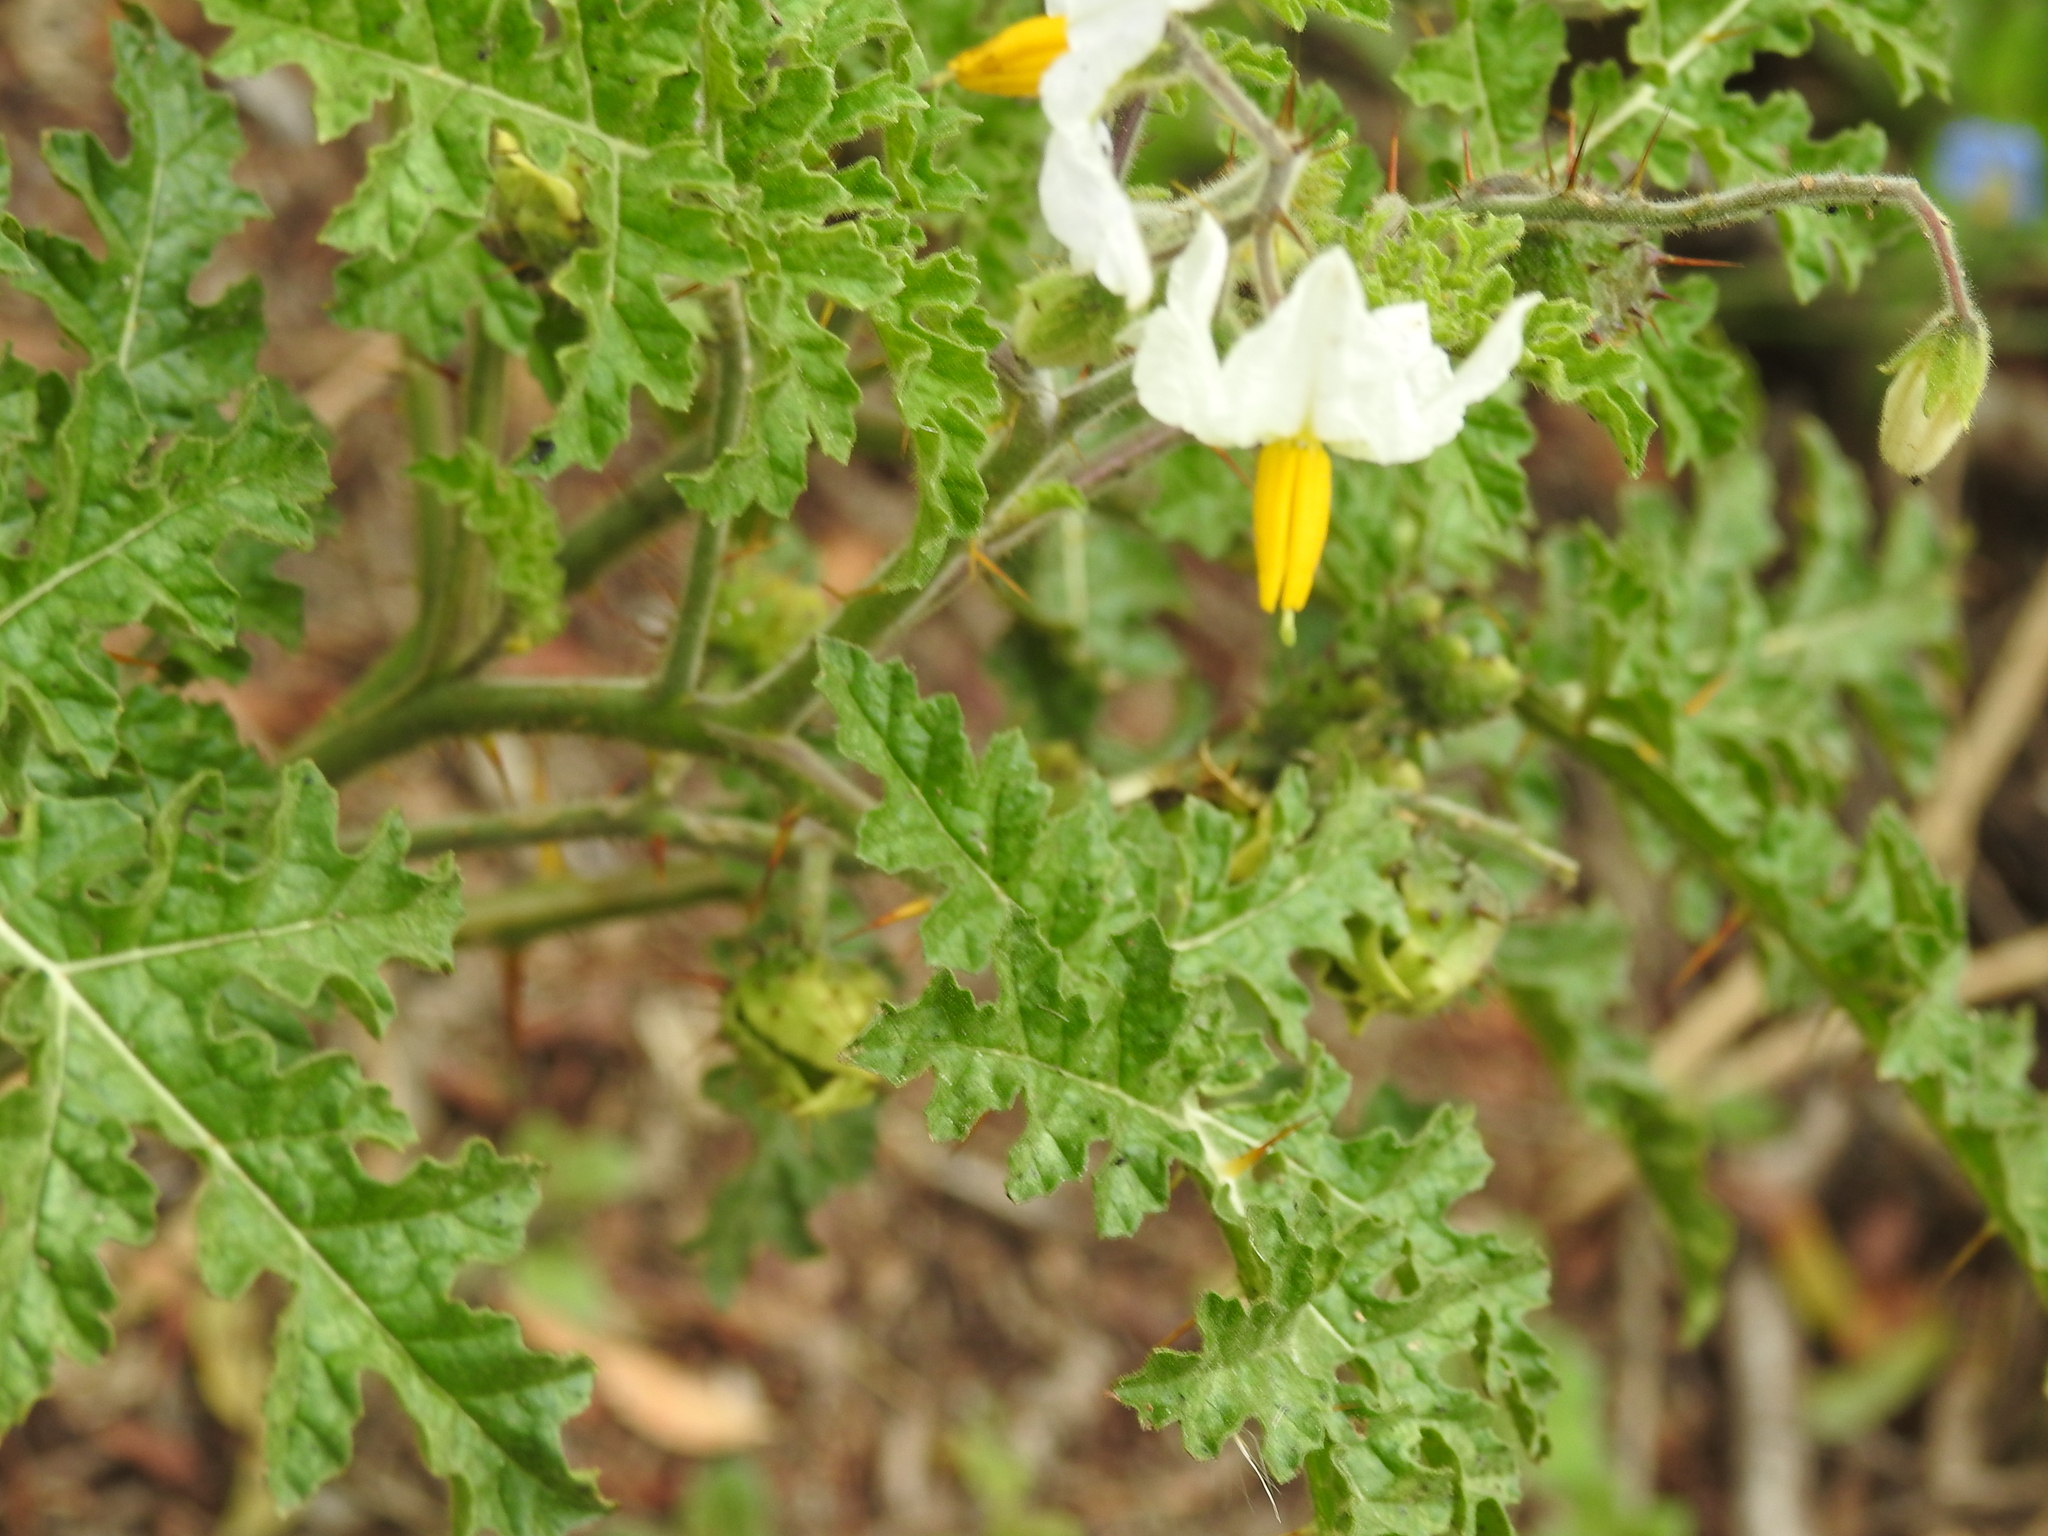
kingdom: Plantae
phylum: Tracheophyta
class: Magnoliopsida
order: Solanales
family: Solanaceae
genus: Solanum
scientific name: Solanum sisymbriifolium
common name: Red buffalo-bur
